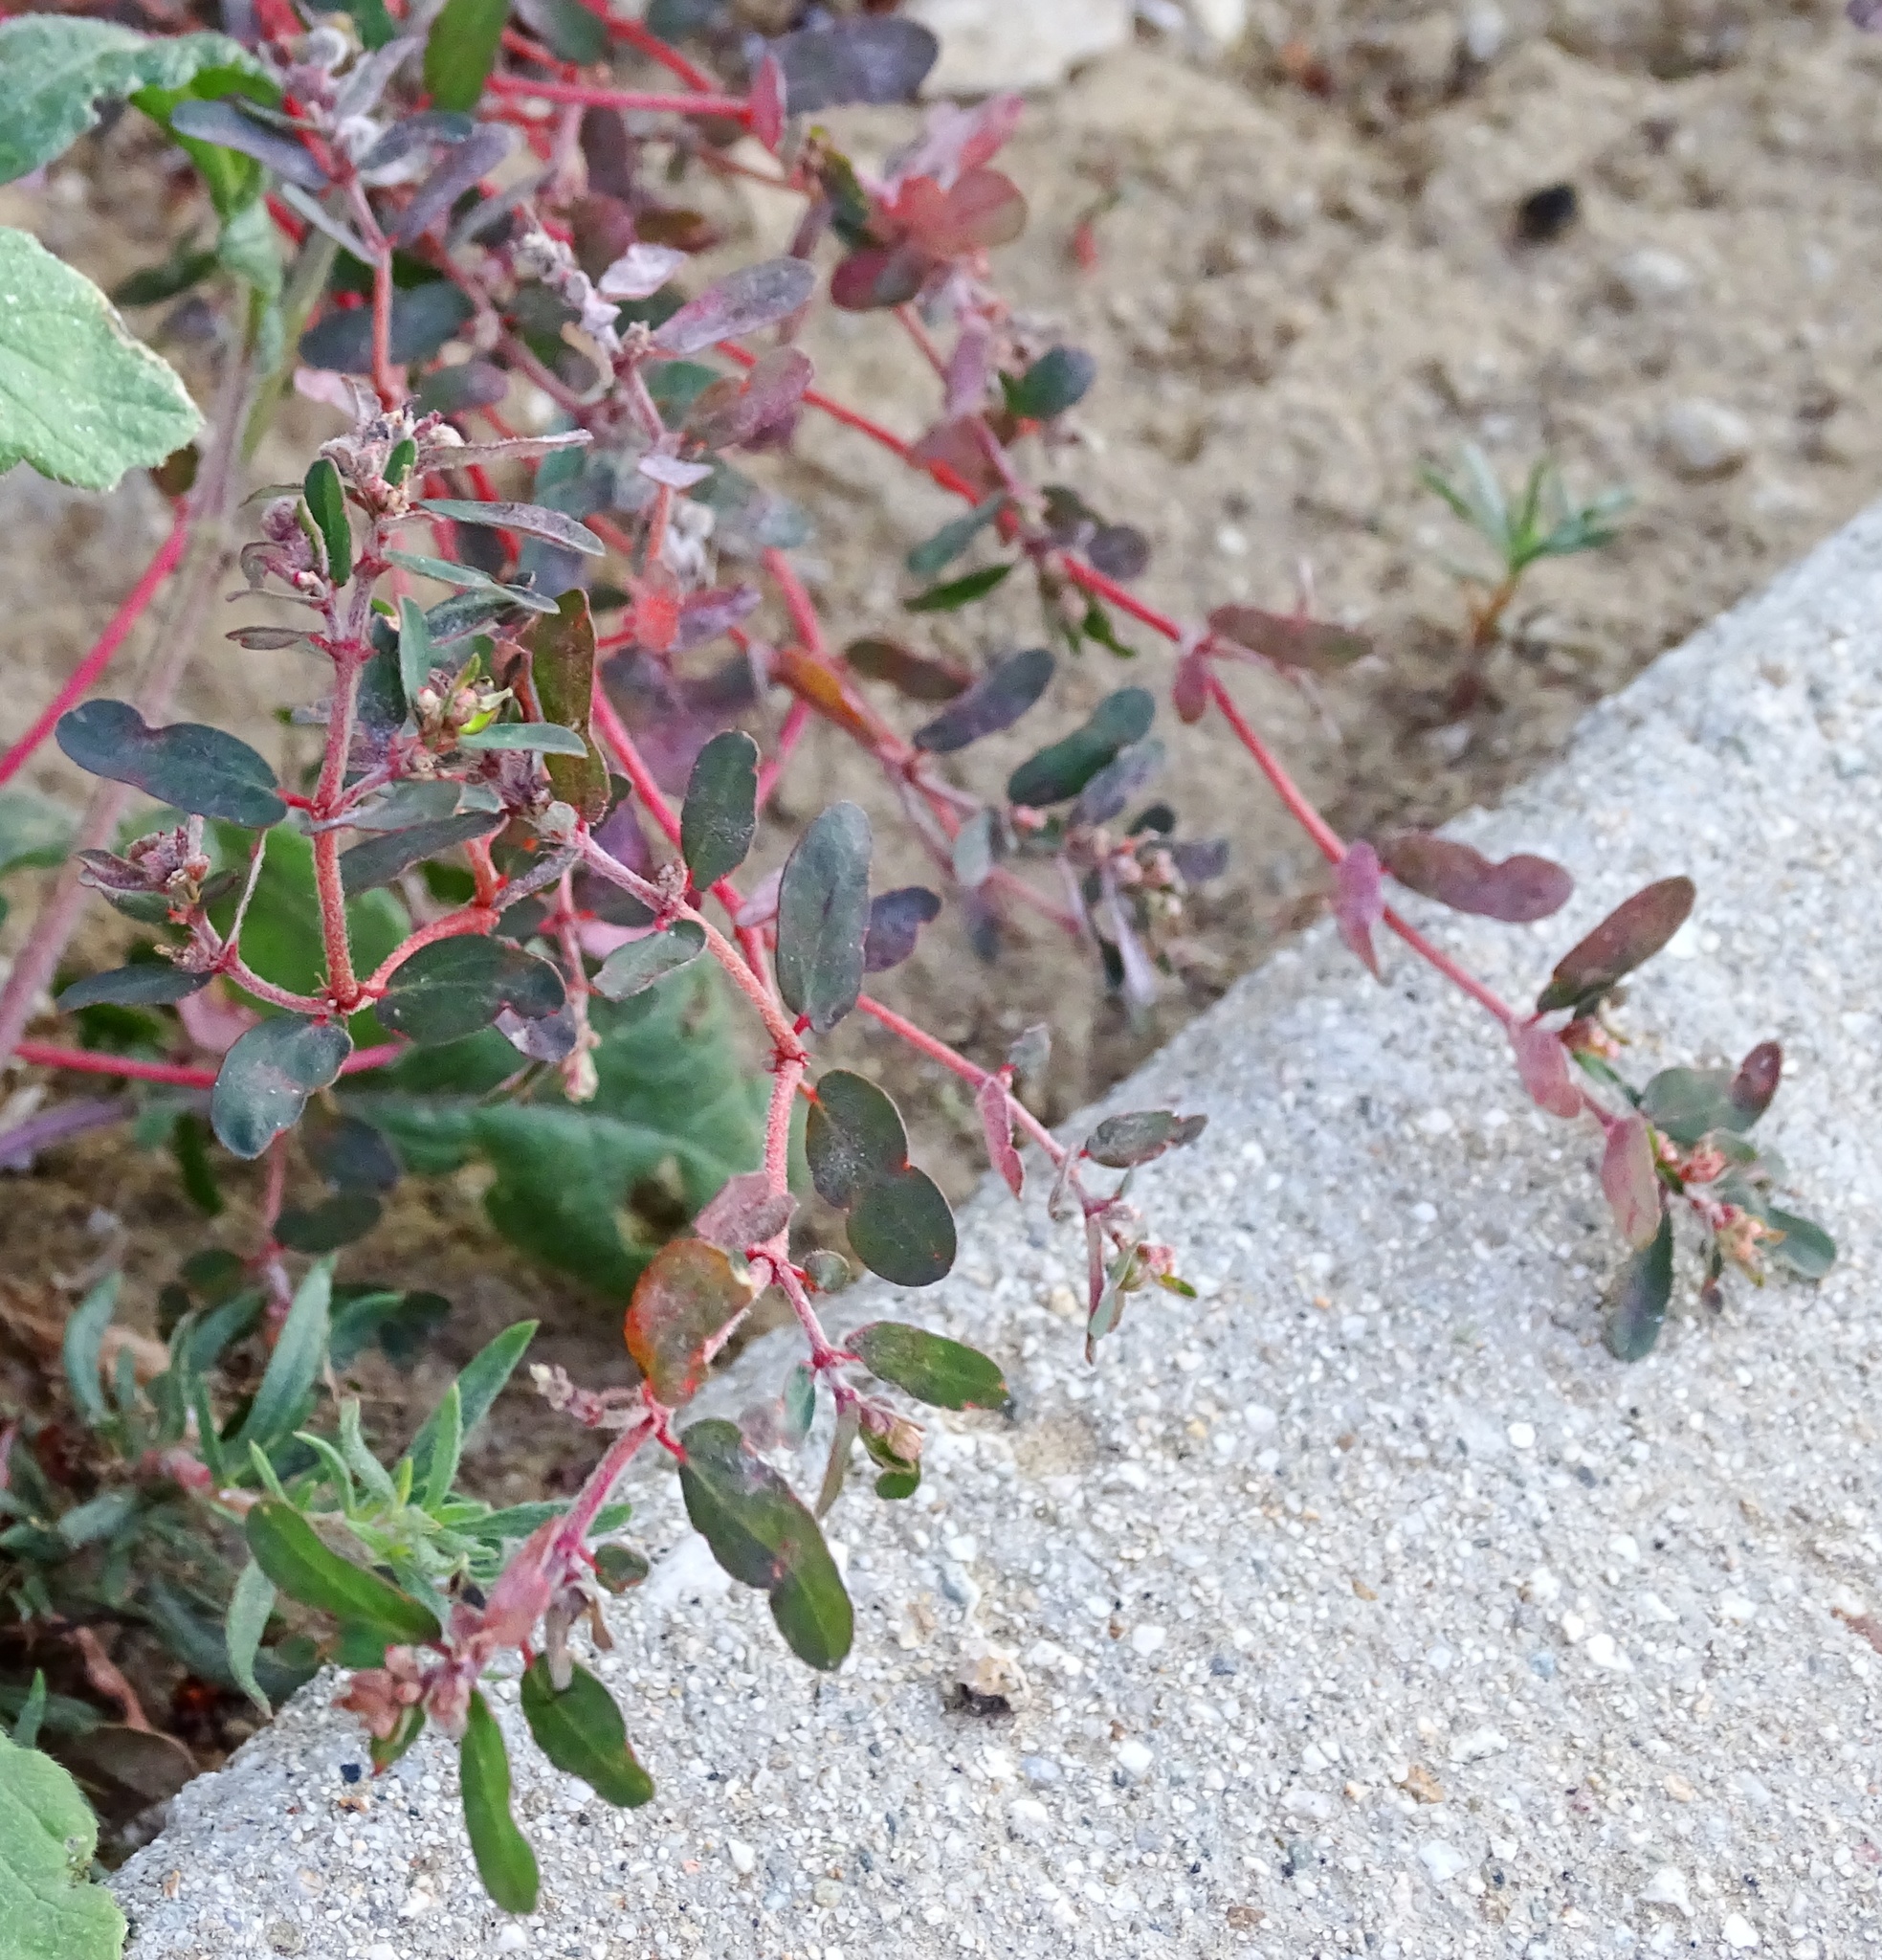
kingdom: Plantae
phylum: Tracheophyta
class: Magnoliopsida
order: Malpighiales
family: Euphorbiaceae
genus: Euphorbia
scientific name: Euphorbia maculata
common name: Spotted spurge
